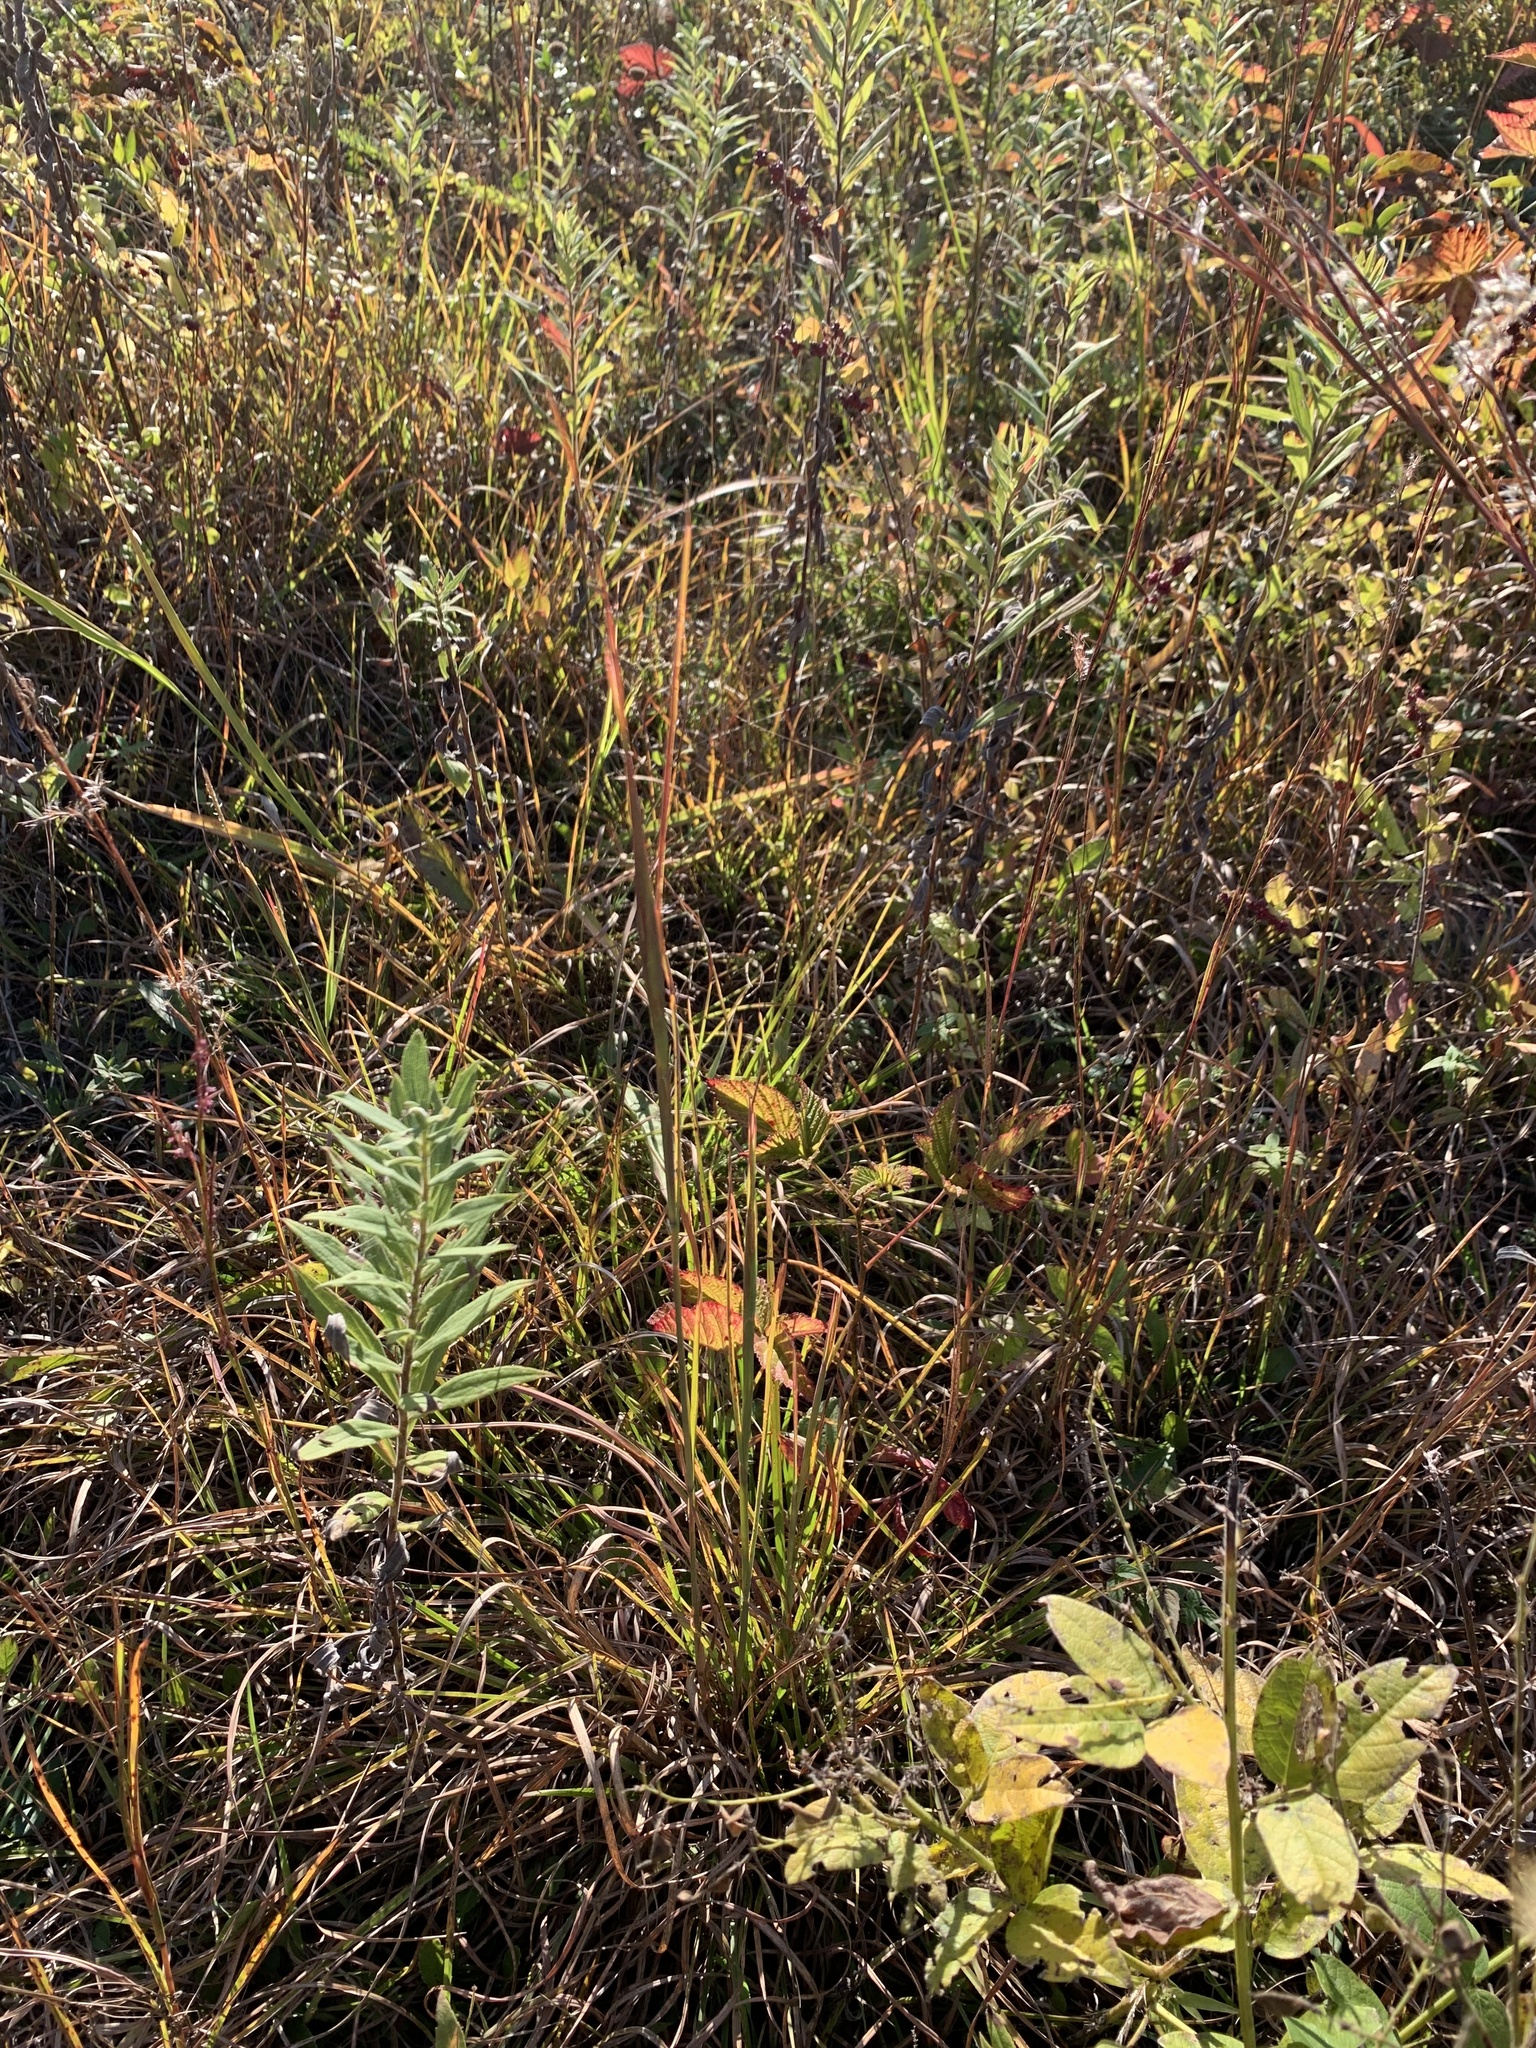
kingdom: Plantae
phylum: Tracheophyta
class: Liliopsida
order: Poales
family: Poaceae
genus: Andropogon
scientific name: Andropogon gyrans
